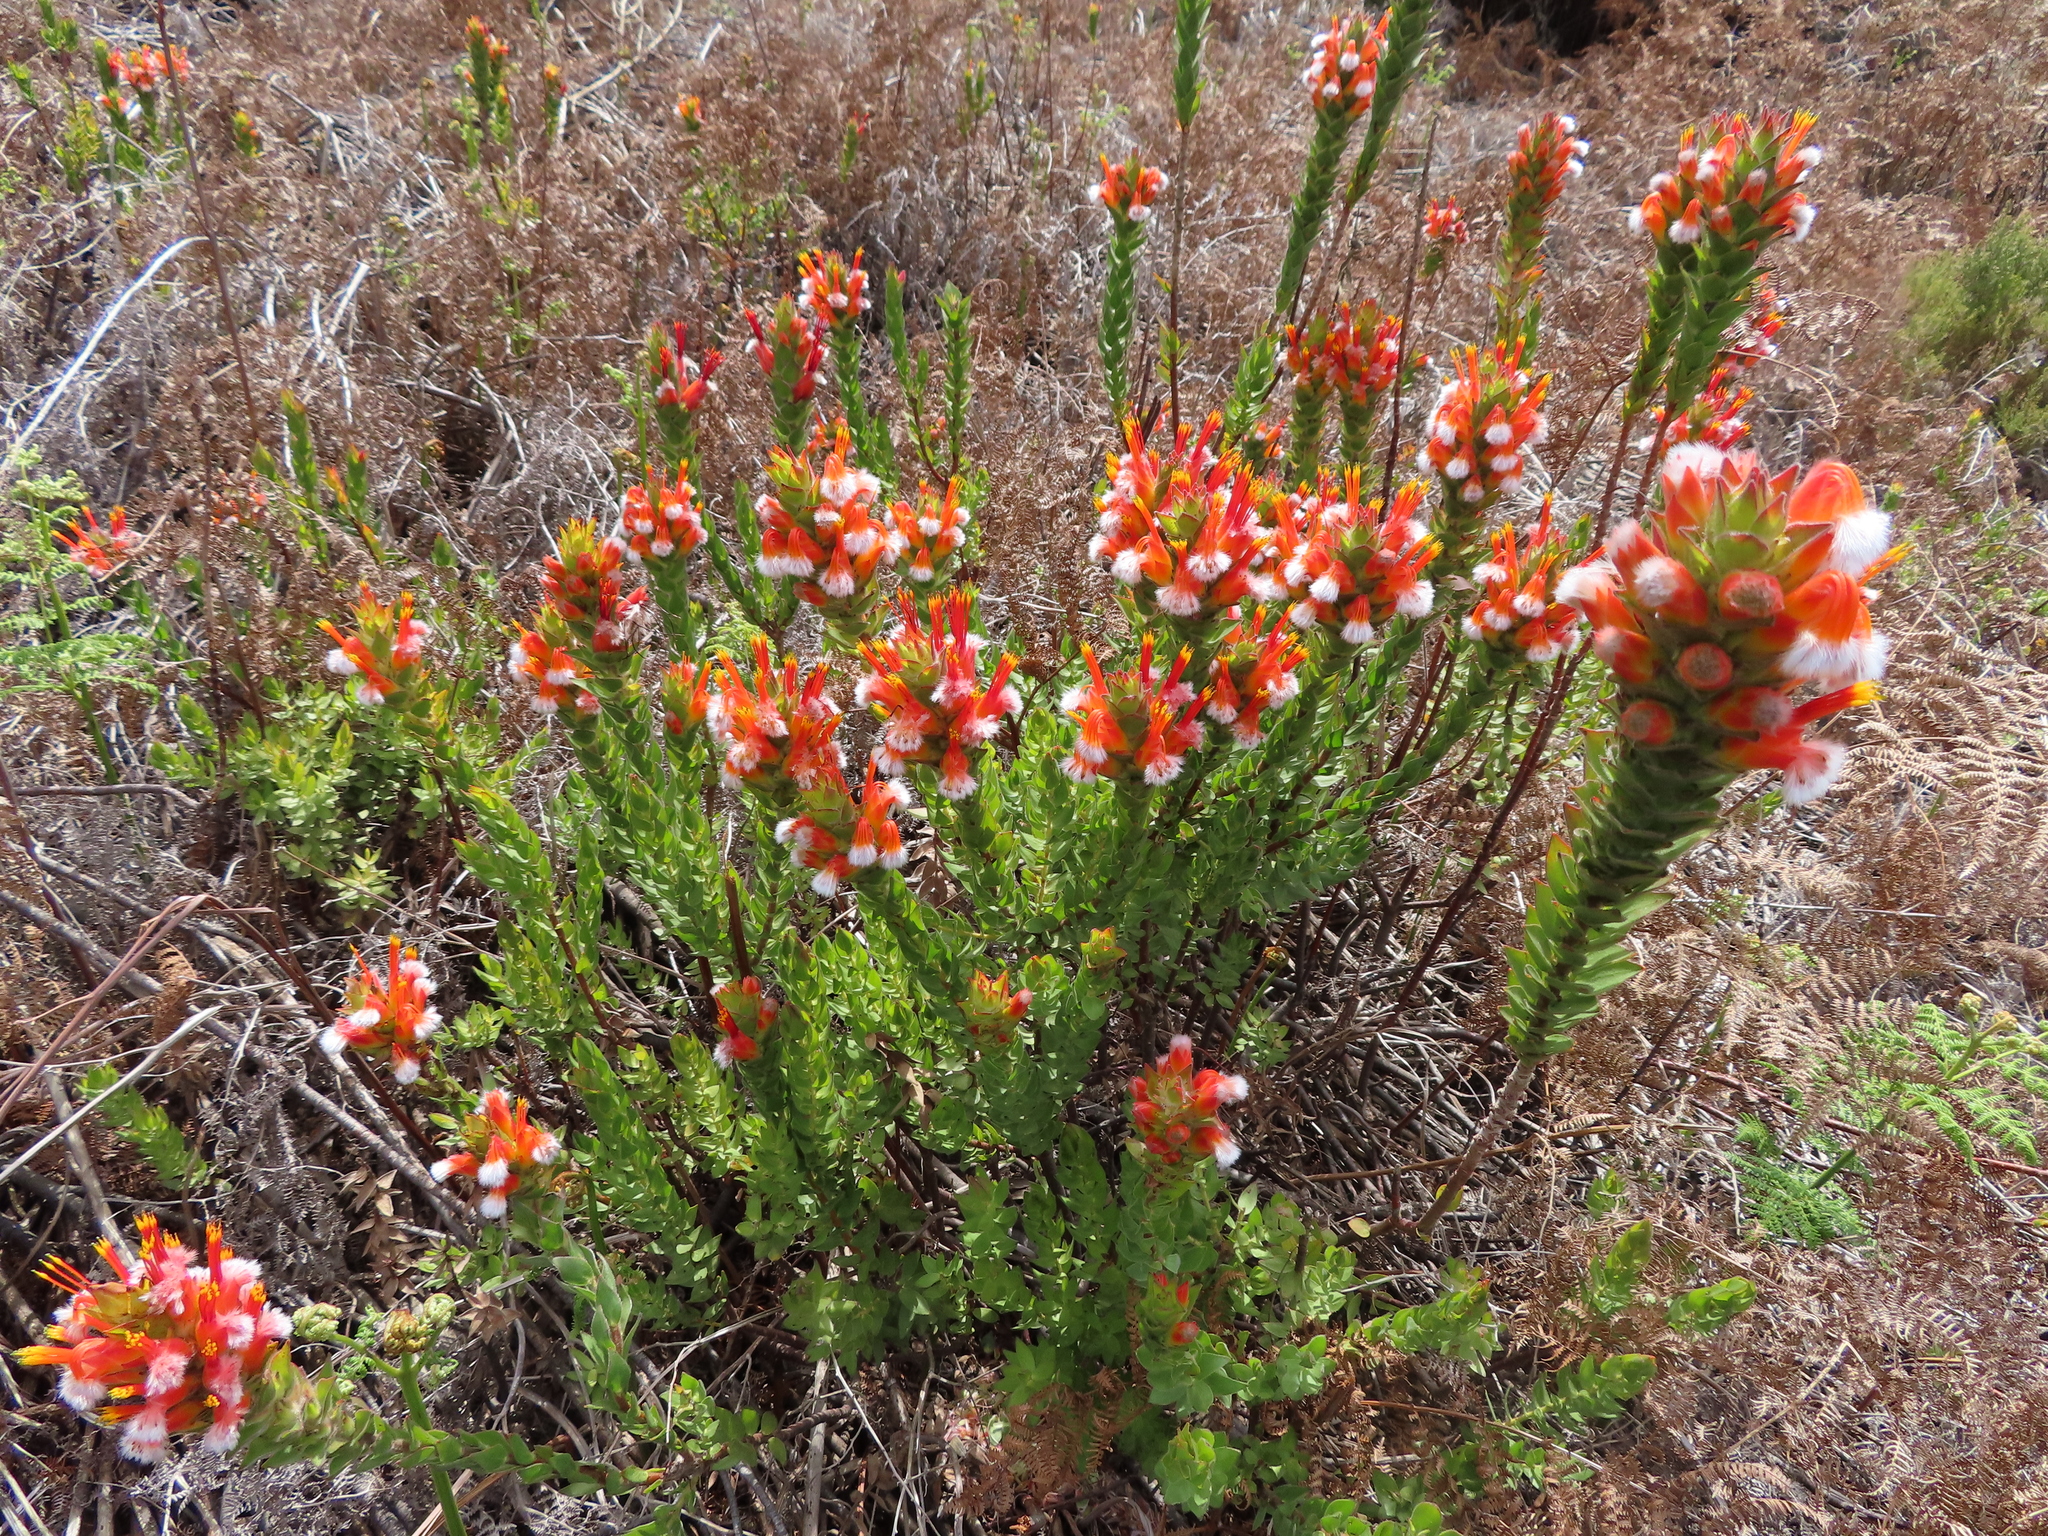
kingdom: Plantae
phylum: Tracheophyta
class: Magnoliopsida
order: Proteales
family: Proteaceae
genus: Mimetes
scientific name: Mimetes capitulatus
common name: Conical pagoda
